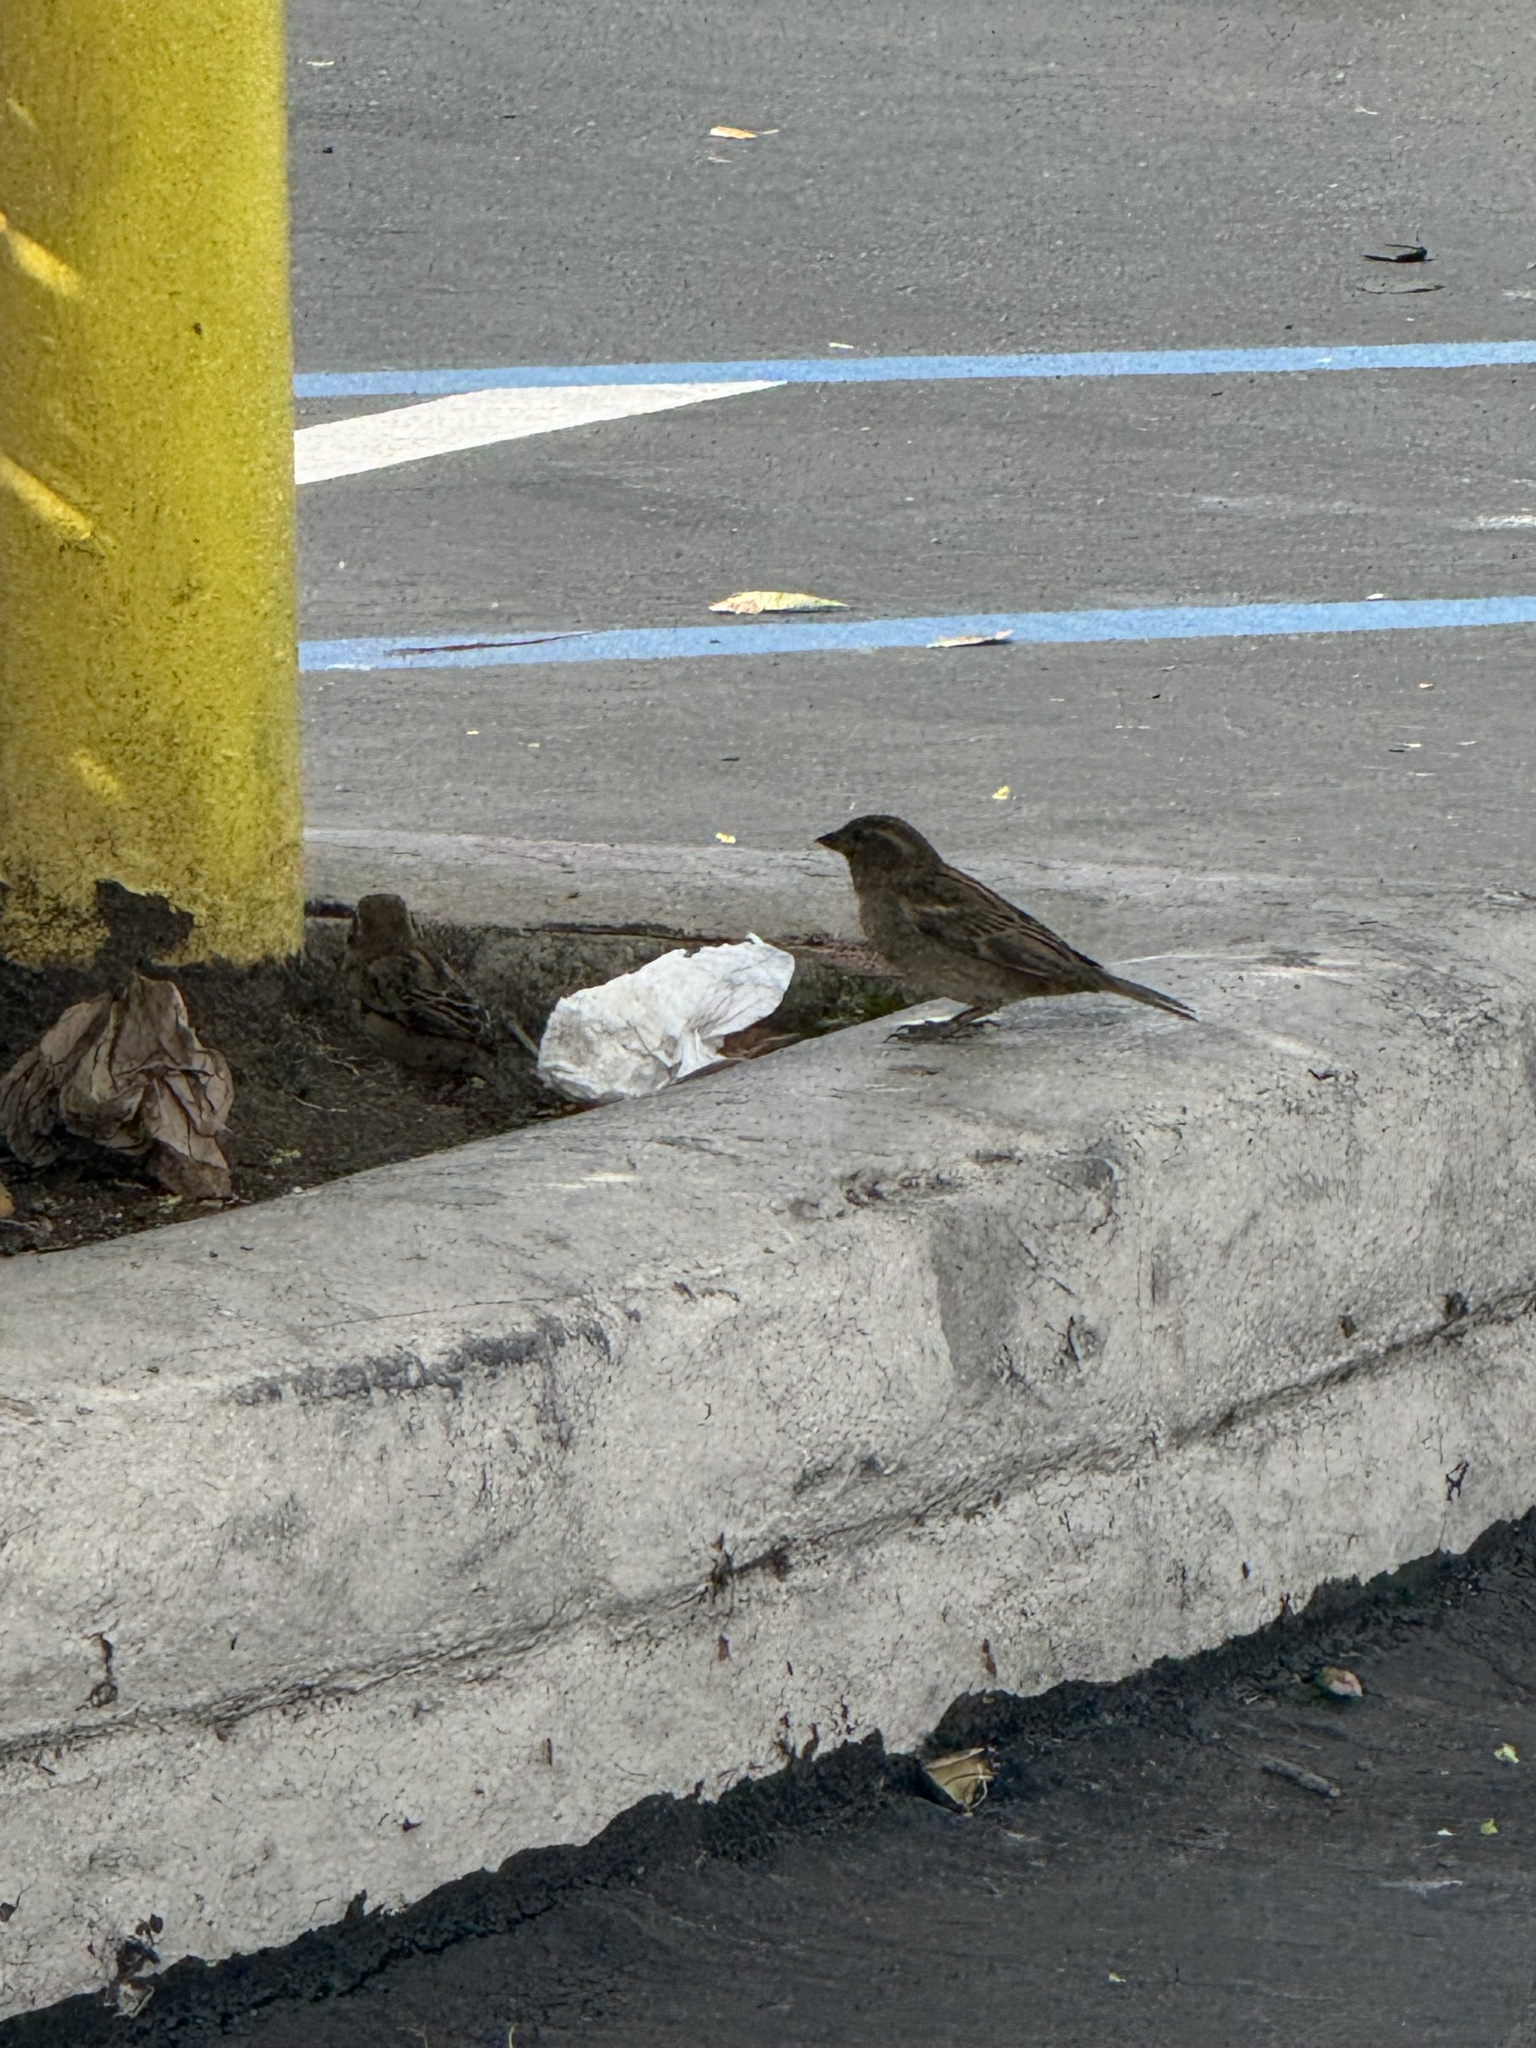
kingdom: Animalia
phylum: Chordata
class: Aves
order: Passeriformes
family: Passeridae
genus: Passer
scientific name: Passer domesticus
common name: House sparrow
